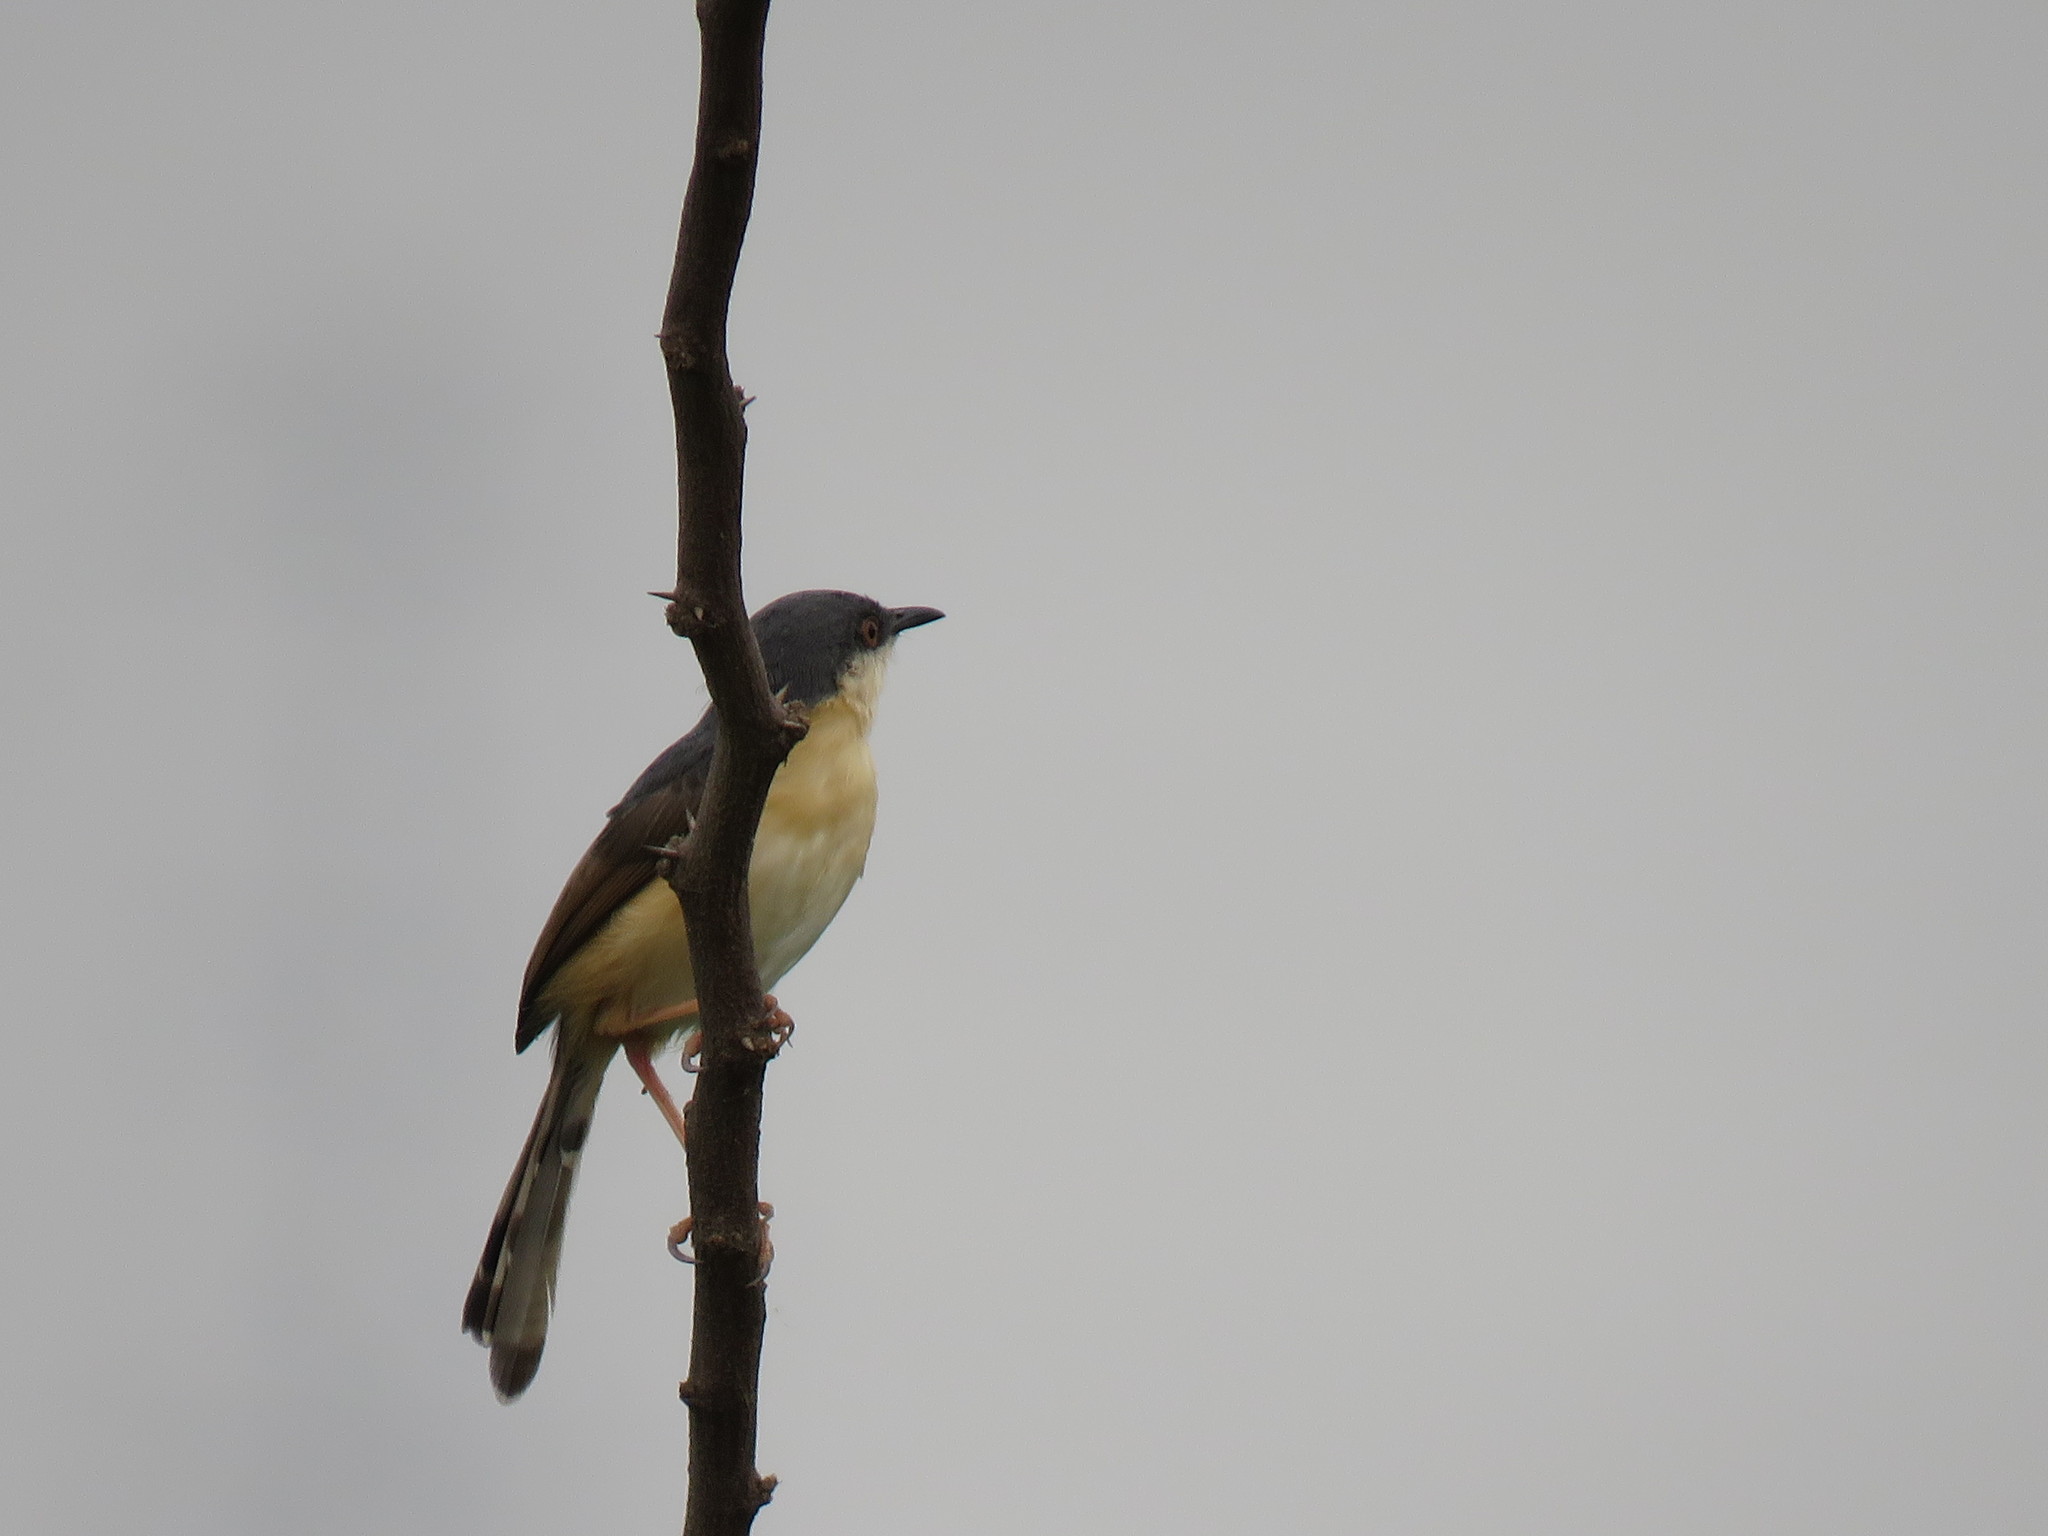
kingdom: Animalia
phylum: Chordata
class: Aves
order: Passeriformes
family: Cisticolidae
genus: Prinia
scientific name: Prinia socialis
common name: Ashy prinia
